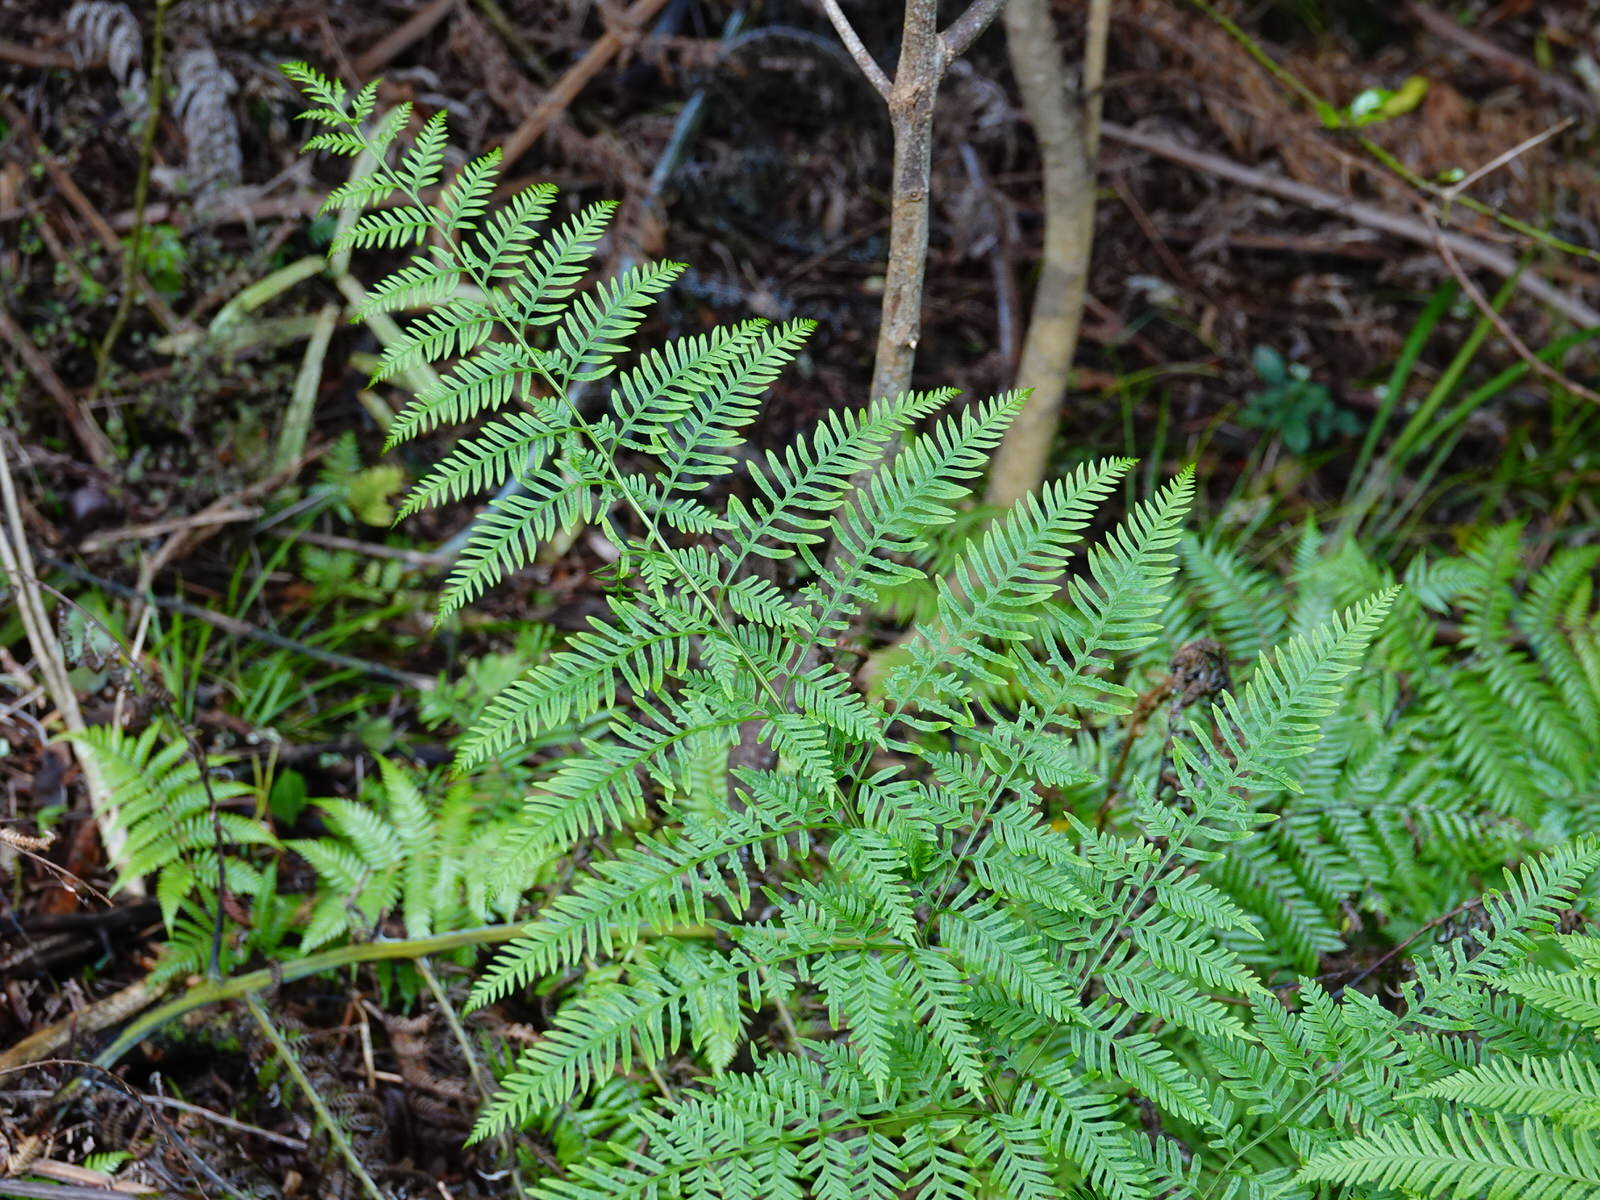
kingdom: Plantae
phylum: Tracheophyta
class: Polypodiopsida
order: Polypodiales
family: Pteridaceae
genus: Pteris
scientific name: Pteris tremula
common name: Australian brake
